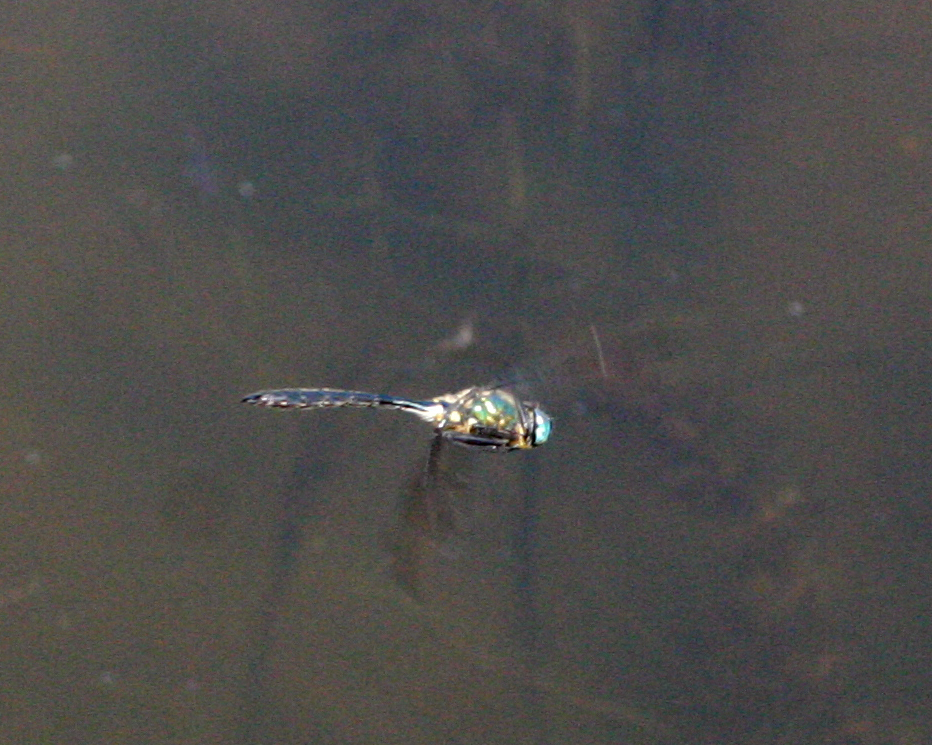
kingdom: Animalia
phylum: Arthropoda
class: Insecta
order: Odonata
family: Corduliidae
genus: Somatochlora
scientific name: Somatochlora graeseri
